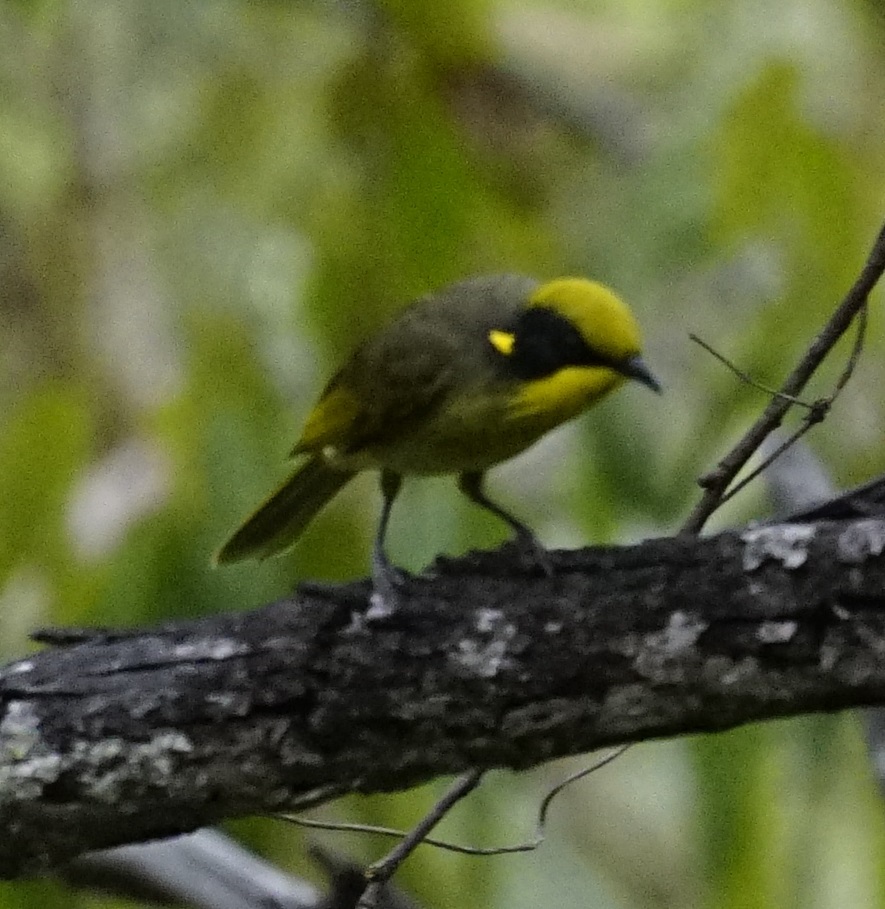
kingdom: Animalia
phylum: Chordata
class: Aves
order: Passeriformes
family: Meliphagidae
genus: Lichenostomus
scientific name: Lichenostomus melanops
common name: Yellow-tufted honeyeater
